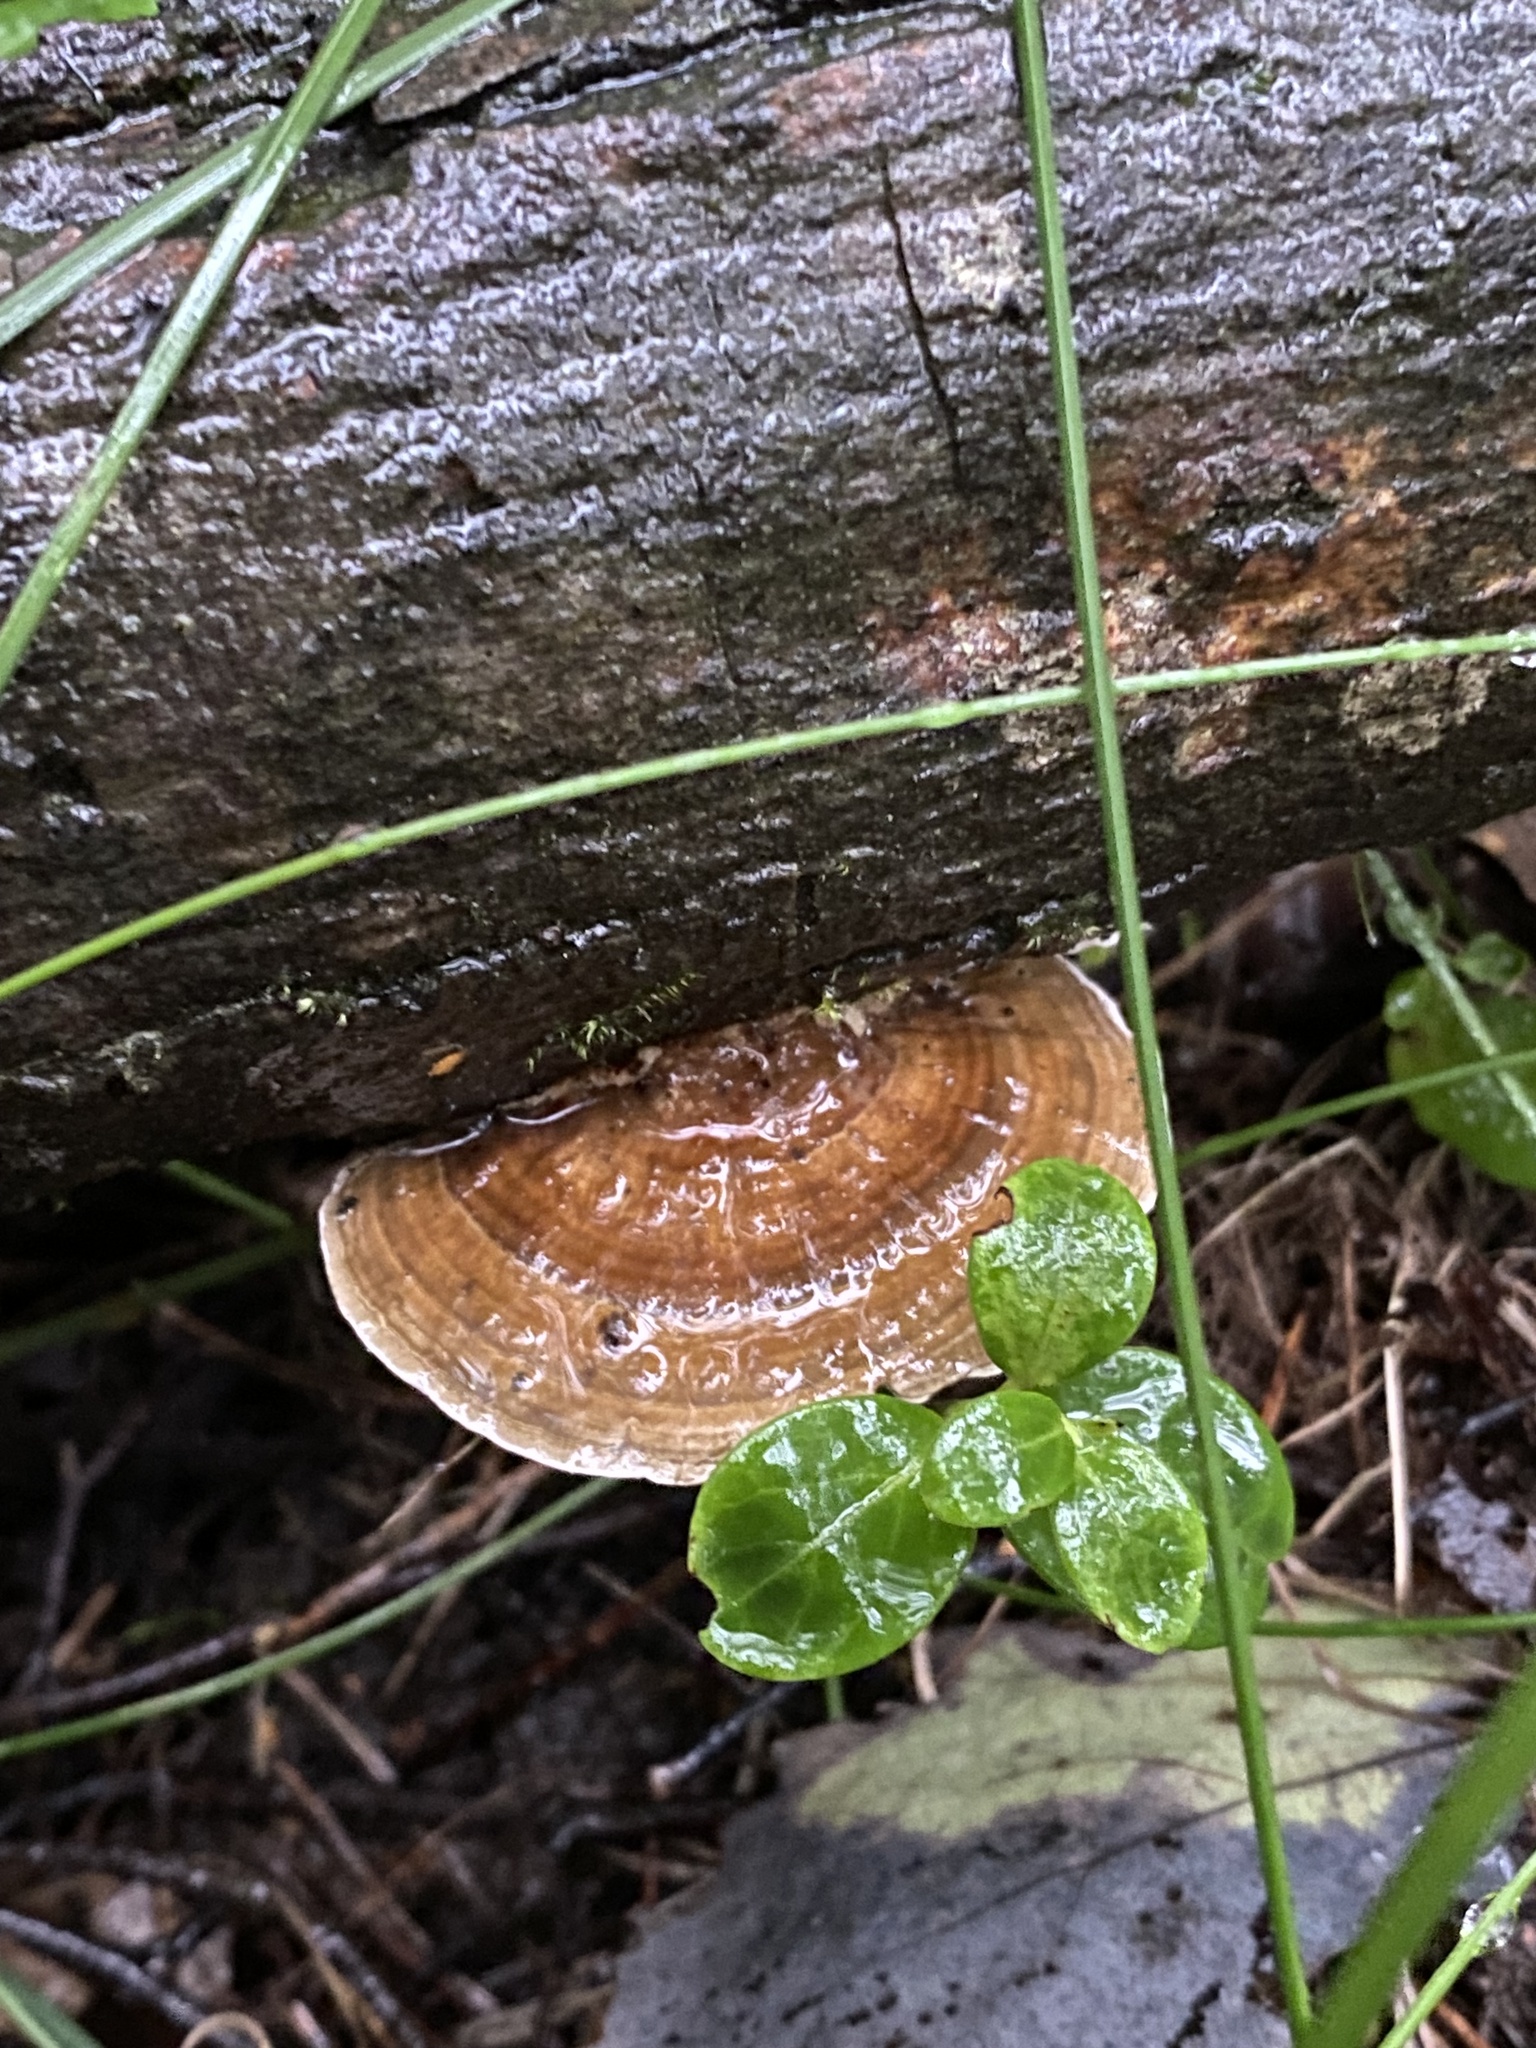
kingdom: Fungi
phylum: Basidiomycota
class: Agaricomycetes
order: Polyporales
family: Polyporaceae
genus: Daedaleopsis
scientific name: Daedaleopsis confragosa
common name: Blushing bracket
